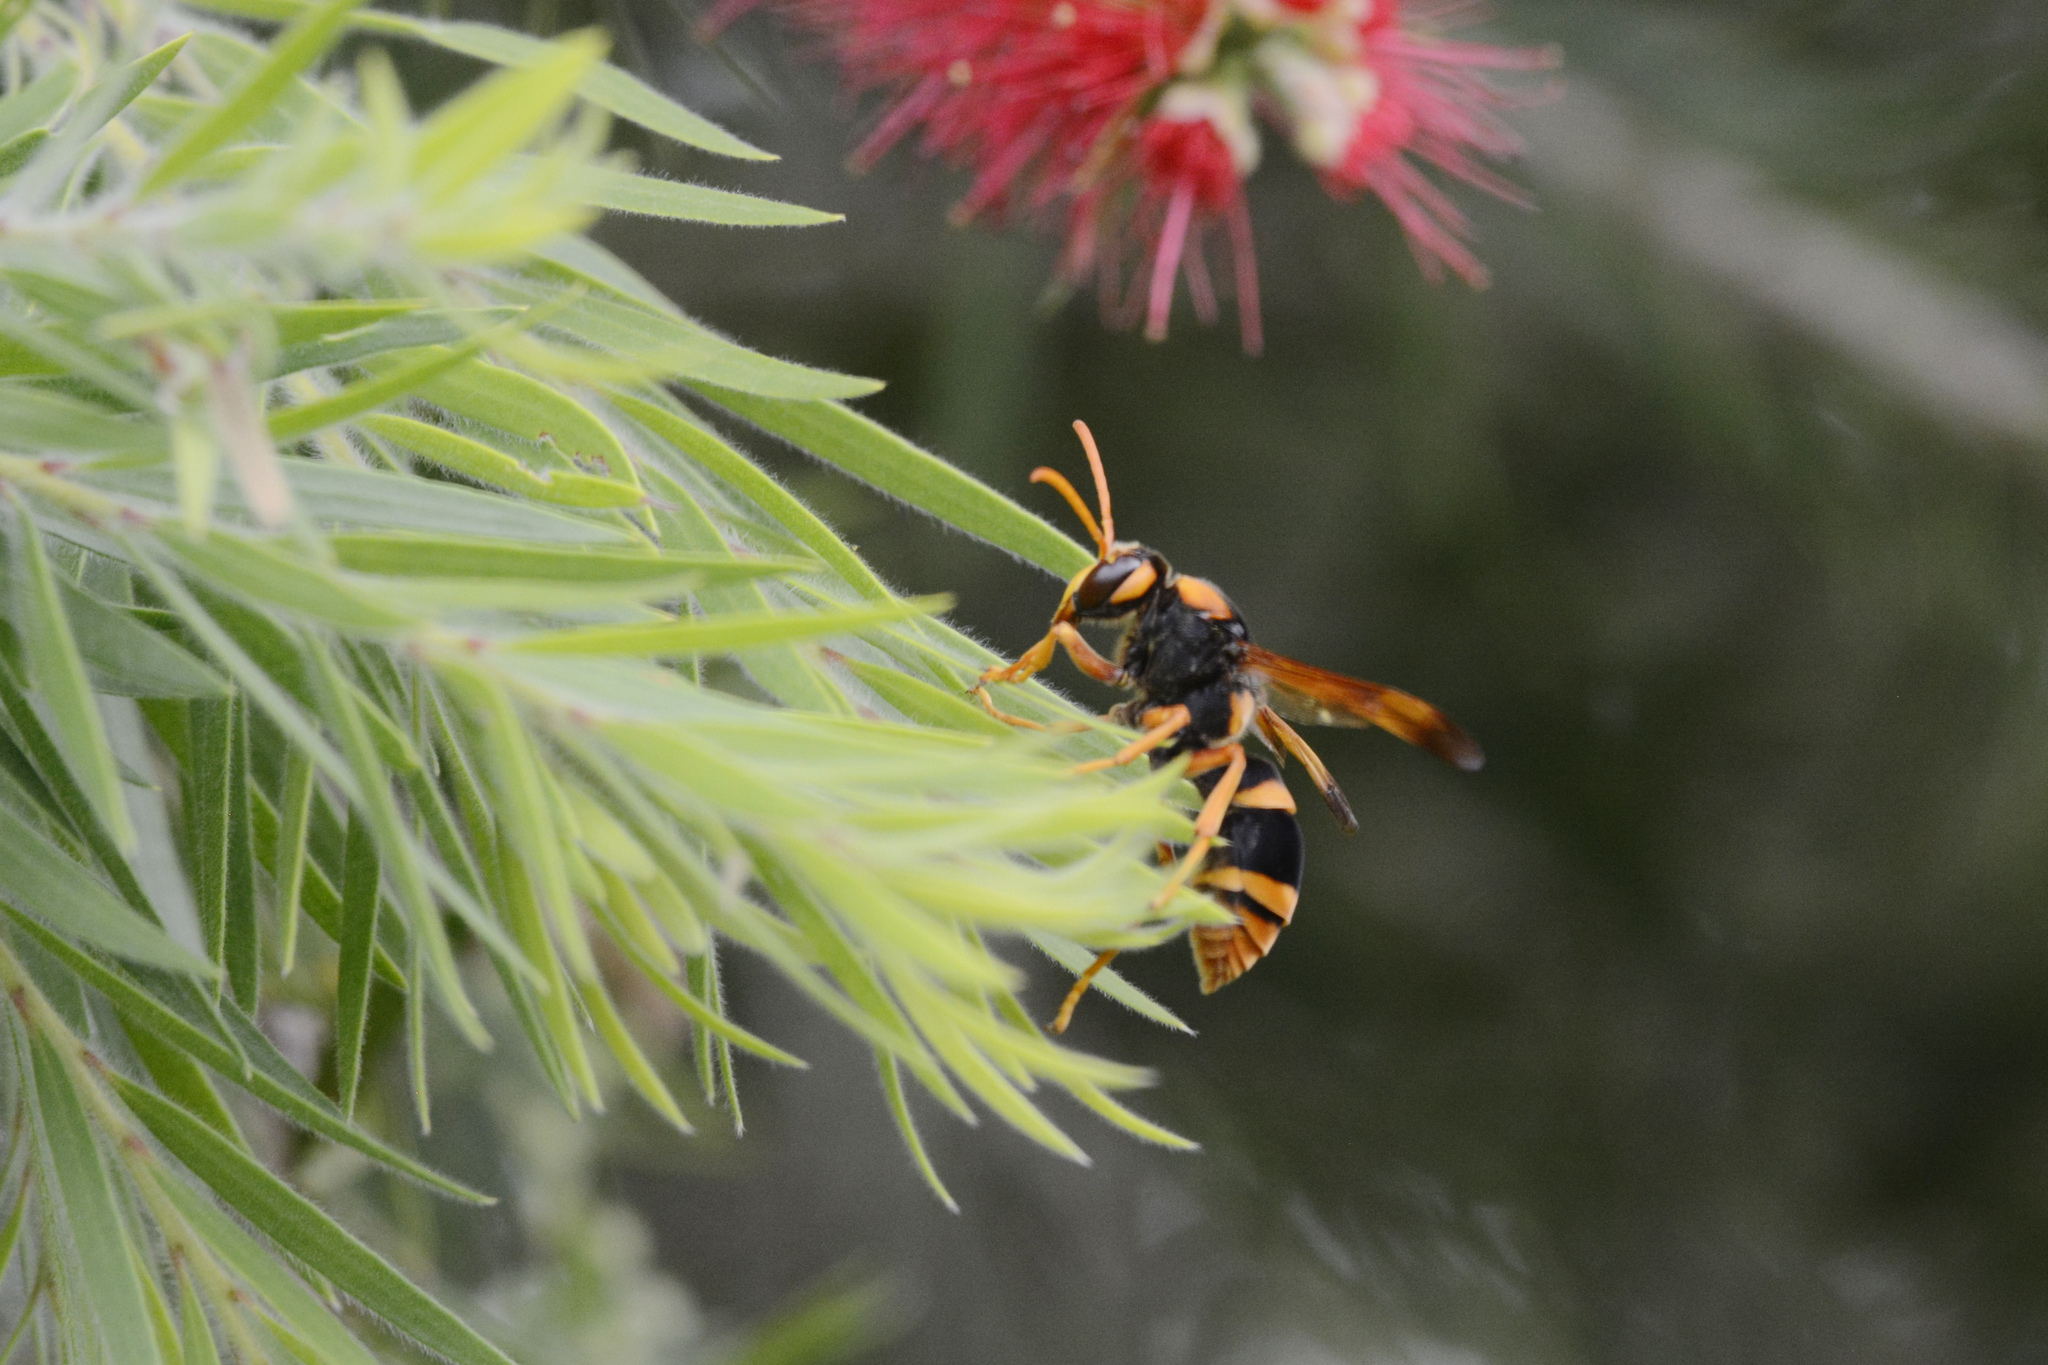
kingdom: Animalia
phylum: Arthropoda
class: Insecta
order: Hymenoptera
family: Eumenidae
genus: Abispa
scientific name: Abispa splendida
